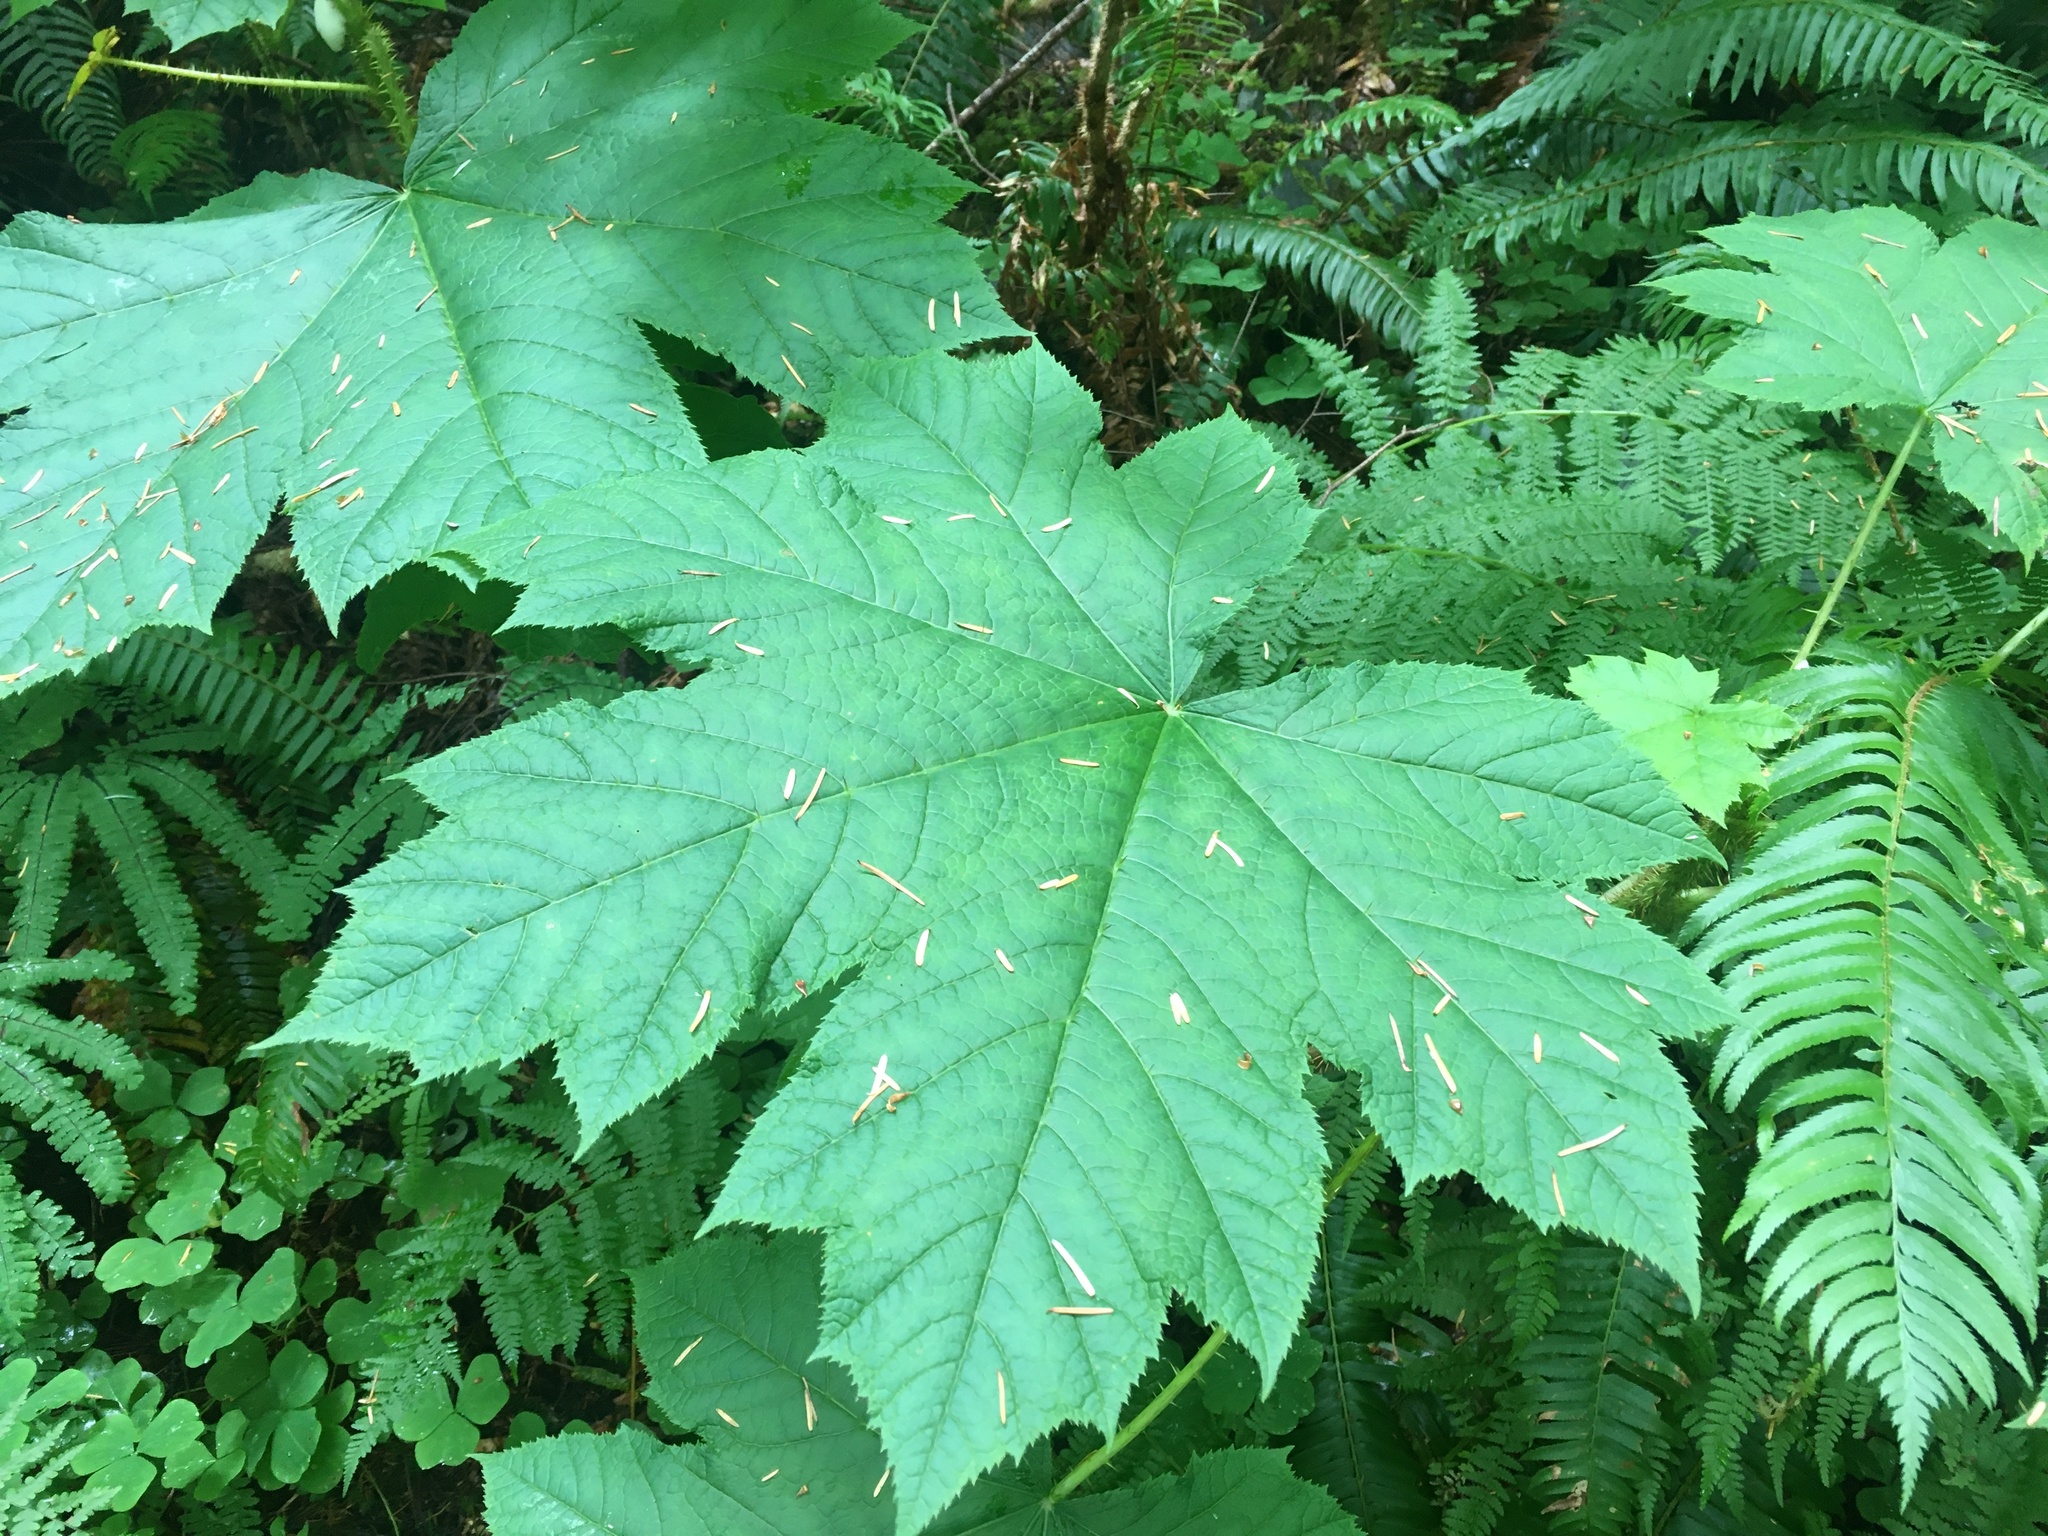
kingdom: Plantae
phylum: Tracheophyta
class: Magnoliopsida
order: Apiales
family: Araliaceae
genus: Oplopanax
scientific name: Oplopanax horridus
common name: Devil's walking-stick
